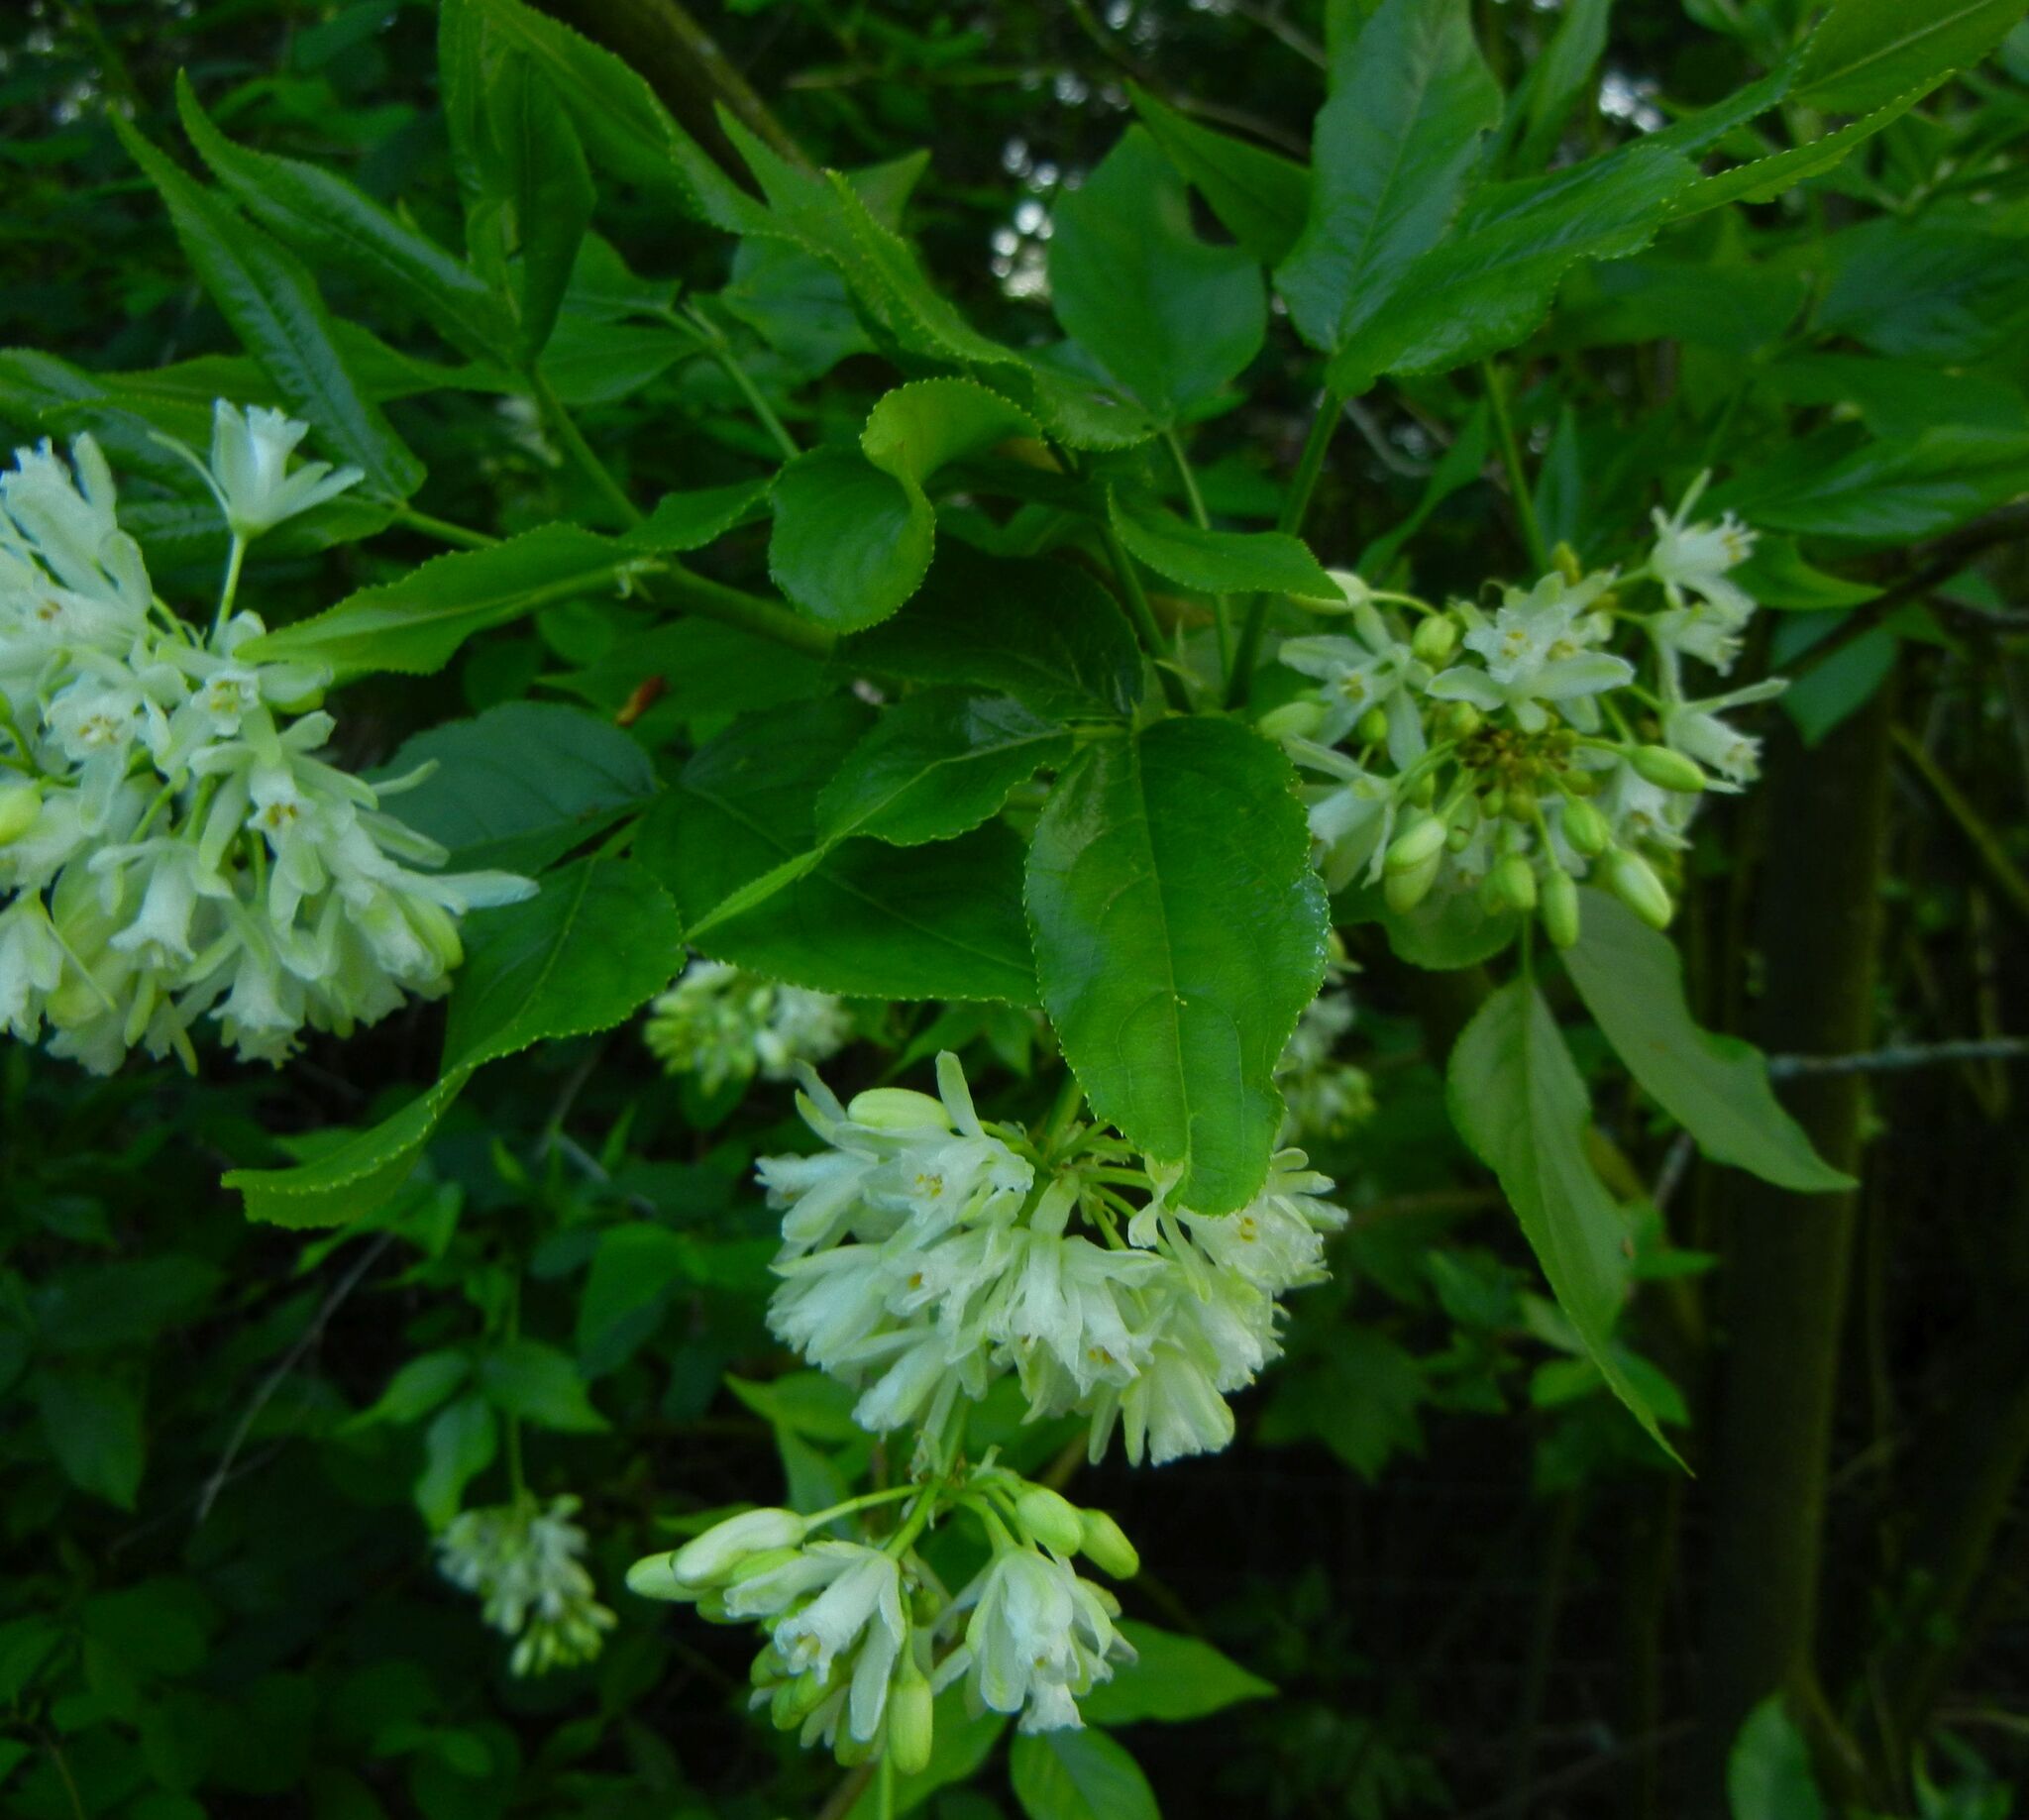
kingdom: Plantae
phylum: Tracheophyta
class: Magnoliopsida
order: Crossosomatales
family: Staphyleaceae
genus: Staphylea
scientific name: Staphylea colchica
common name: Caucasian bladdernut
